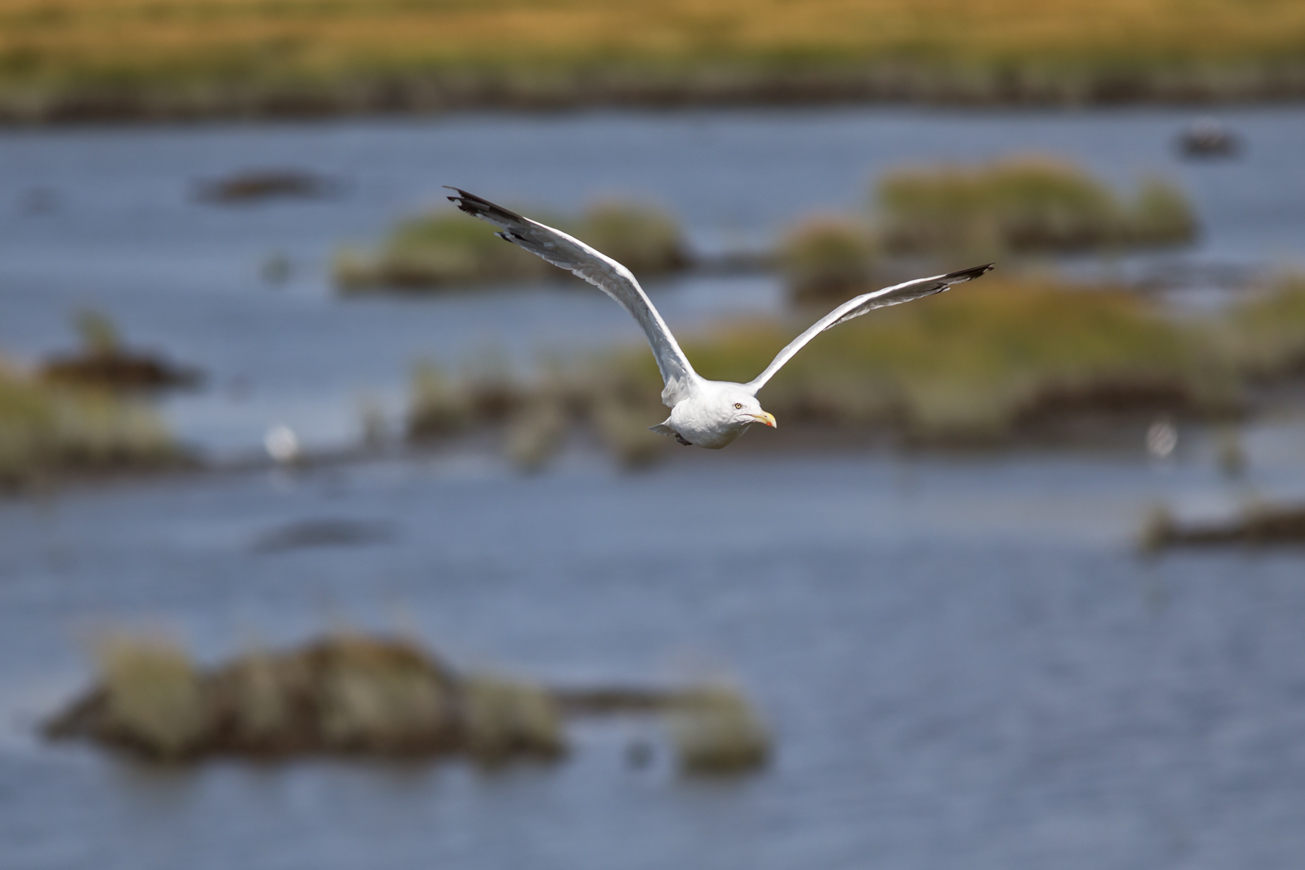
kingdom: Animalia
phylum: Chordata
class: Aves
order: Charadriiformes
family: Laridae
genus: Larus
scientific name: Larus argentatus
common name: Herring gull
